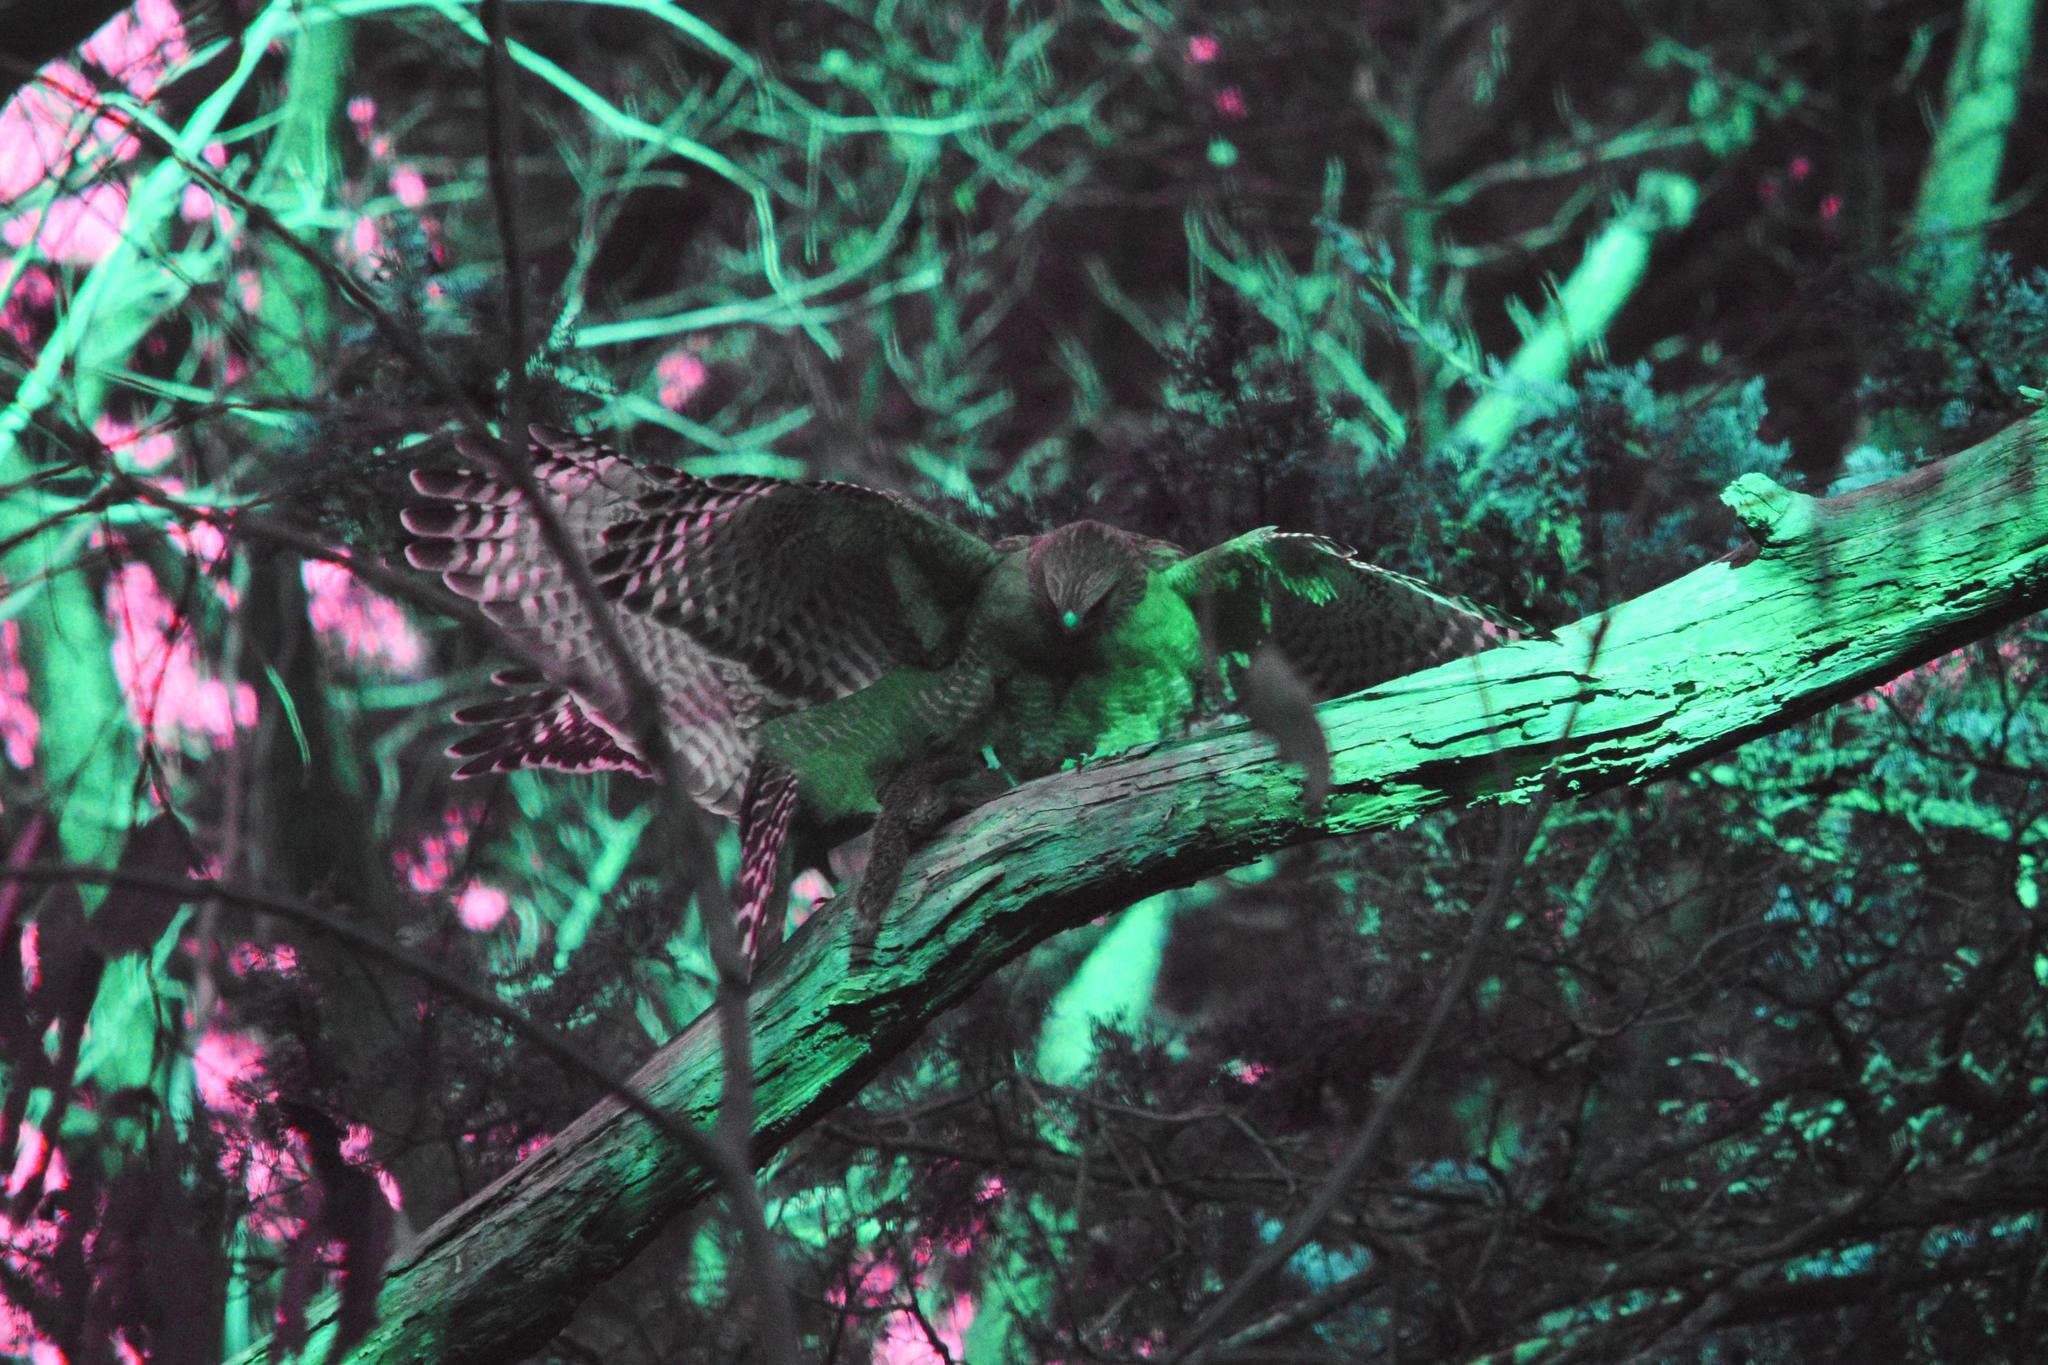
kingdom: Animalia
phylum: Chordata
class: Aves
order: Accipitriformes
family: Accipitridae
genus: Buteo
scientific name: Buteo lineatus
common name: Red-shouldered hawk
